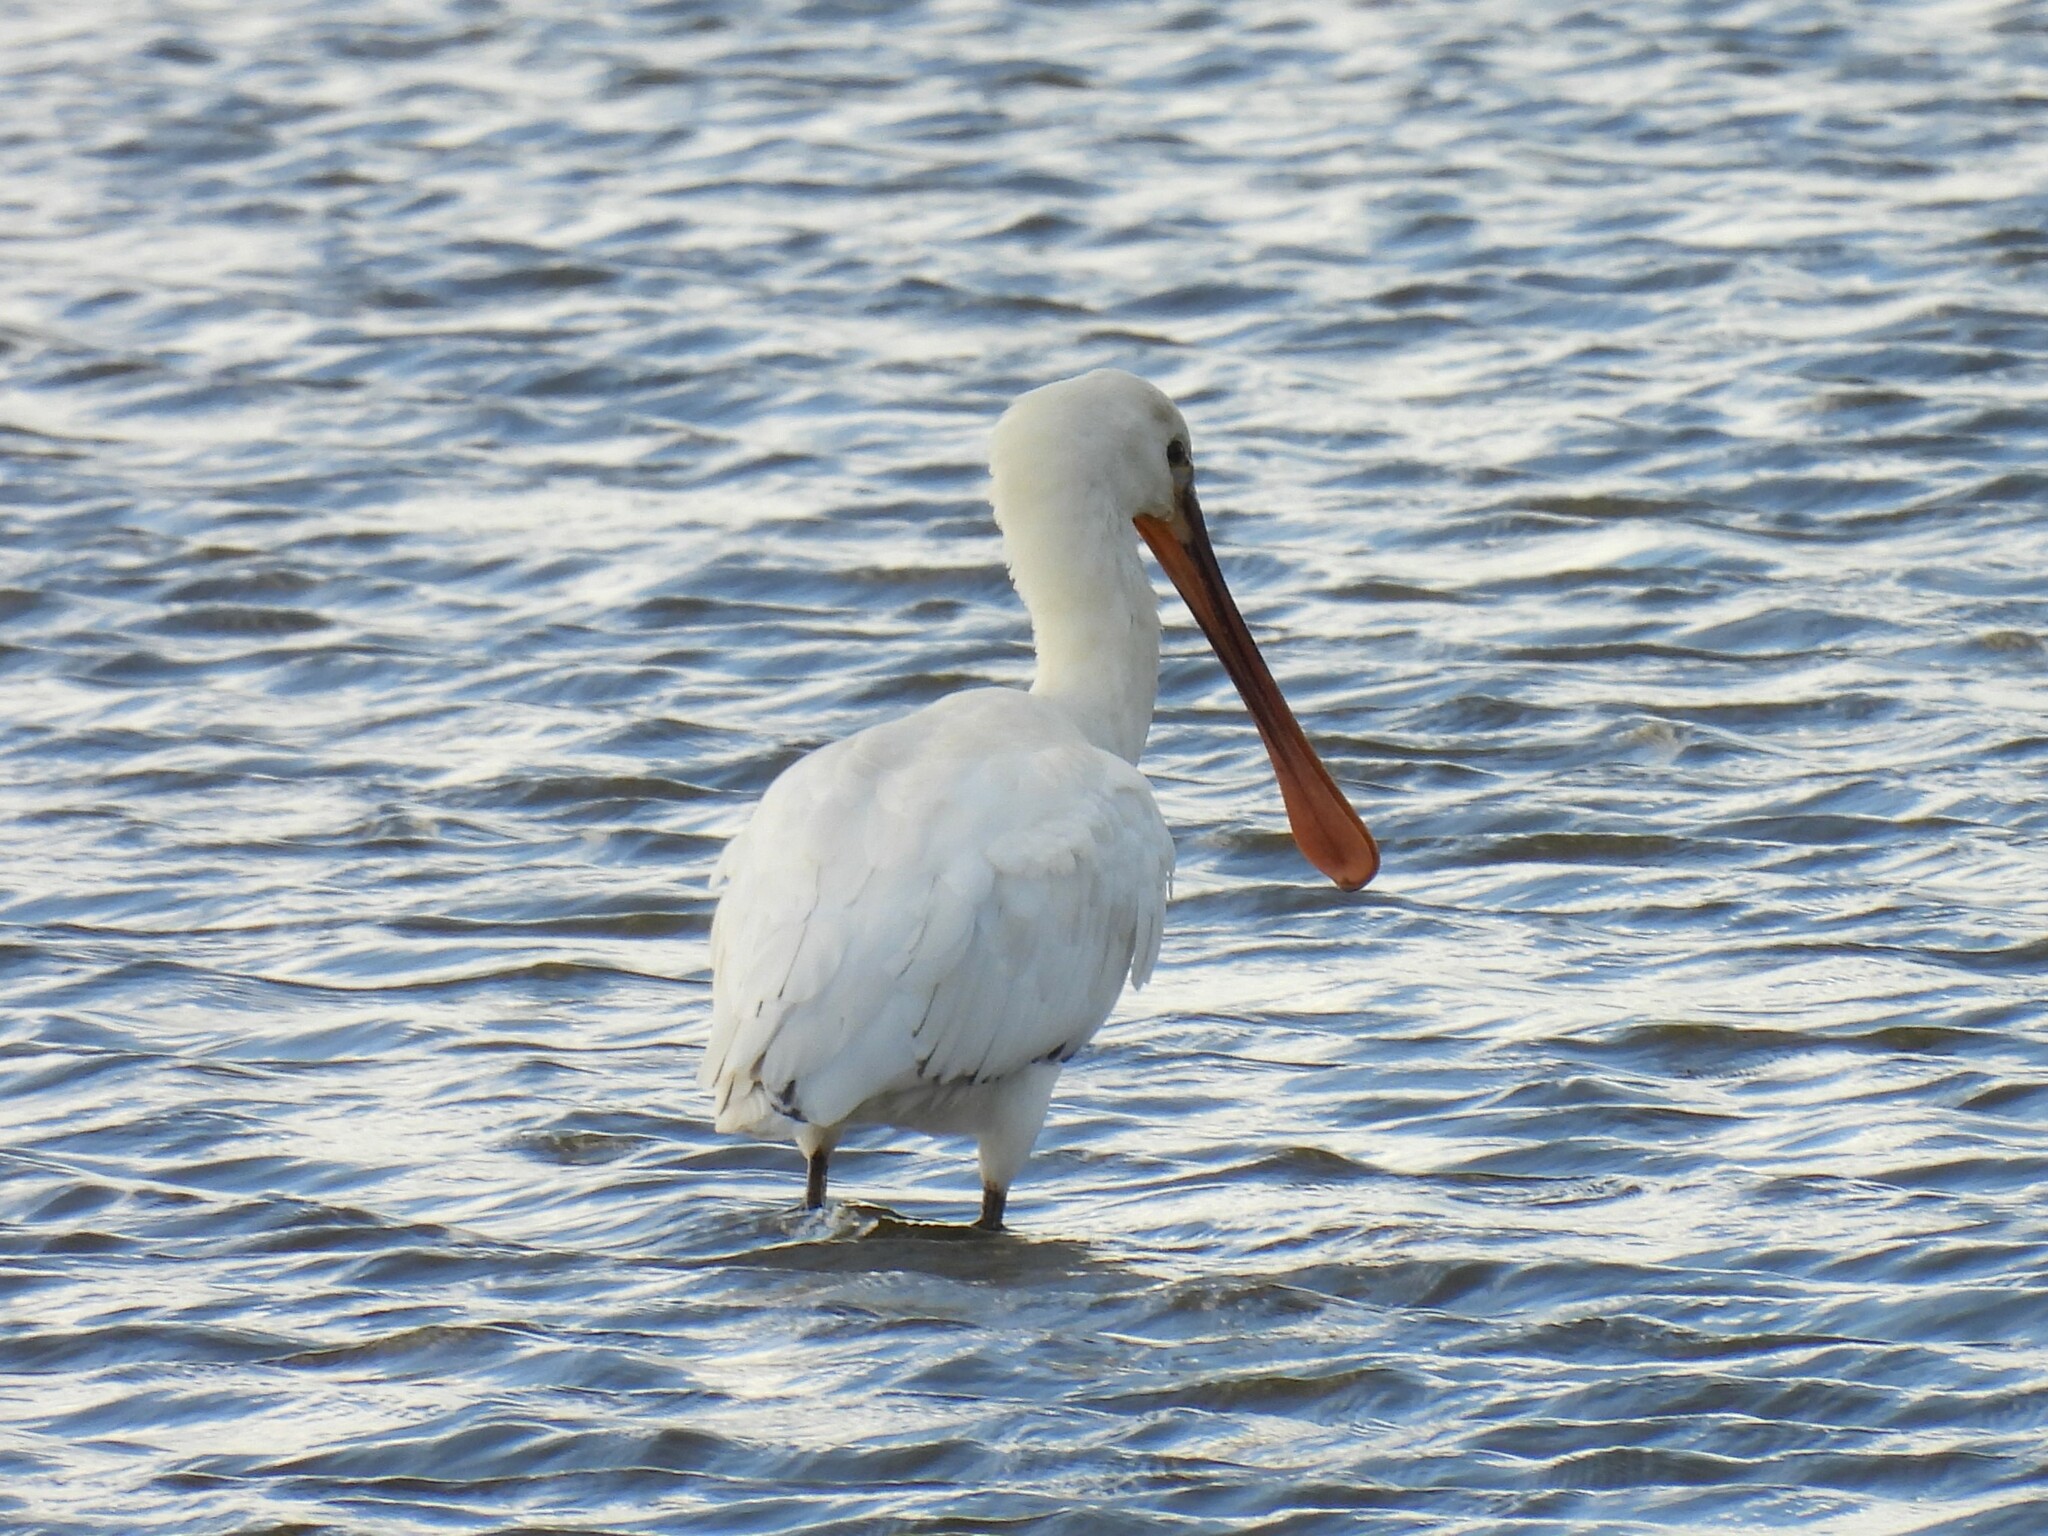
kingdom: Animalia
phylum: Chordata
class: Aves
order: Pelecaniformes
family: Threskiornithidae
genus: Platalea
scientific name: Platalea leucorodia
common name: Eurasian spoonbill
